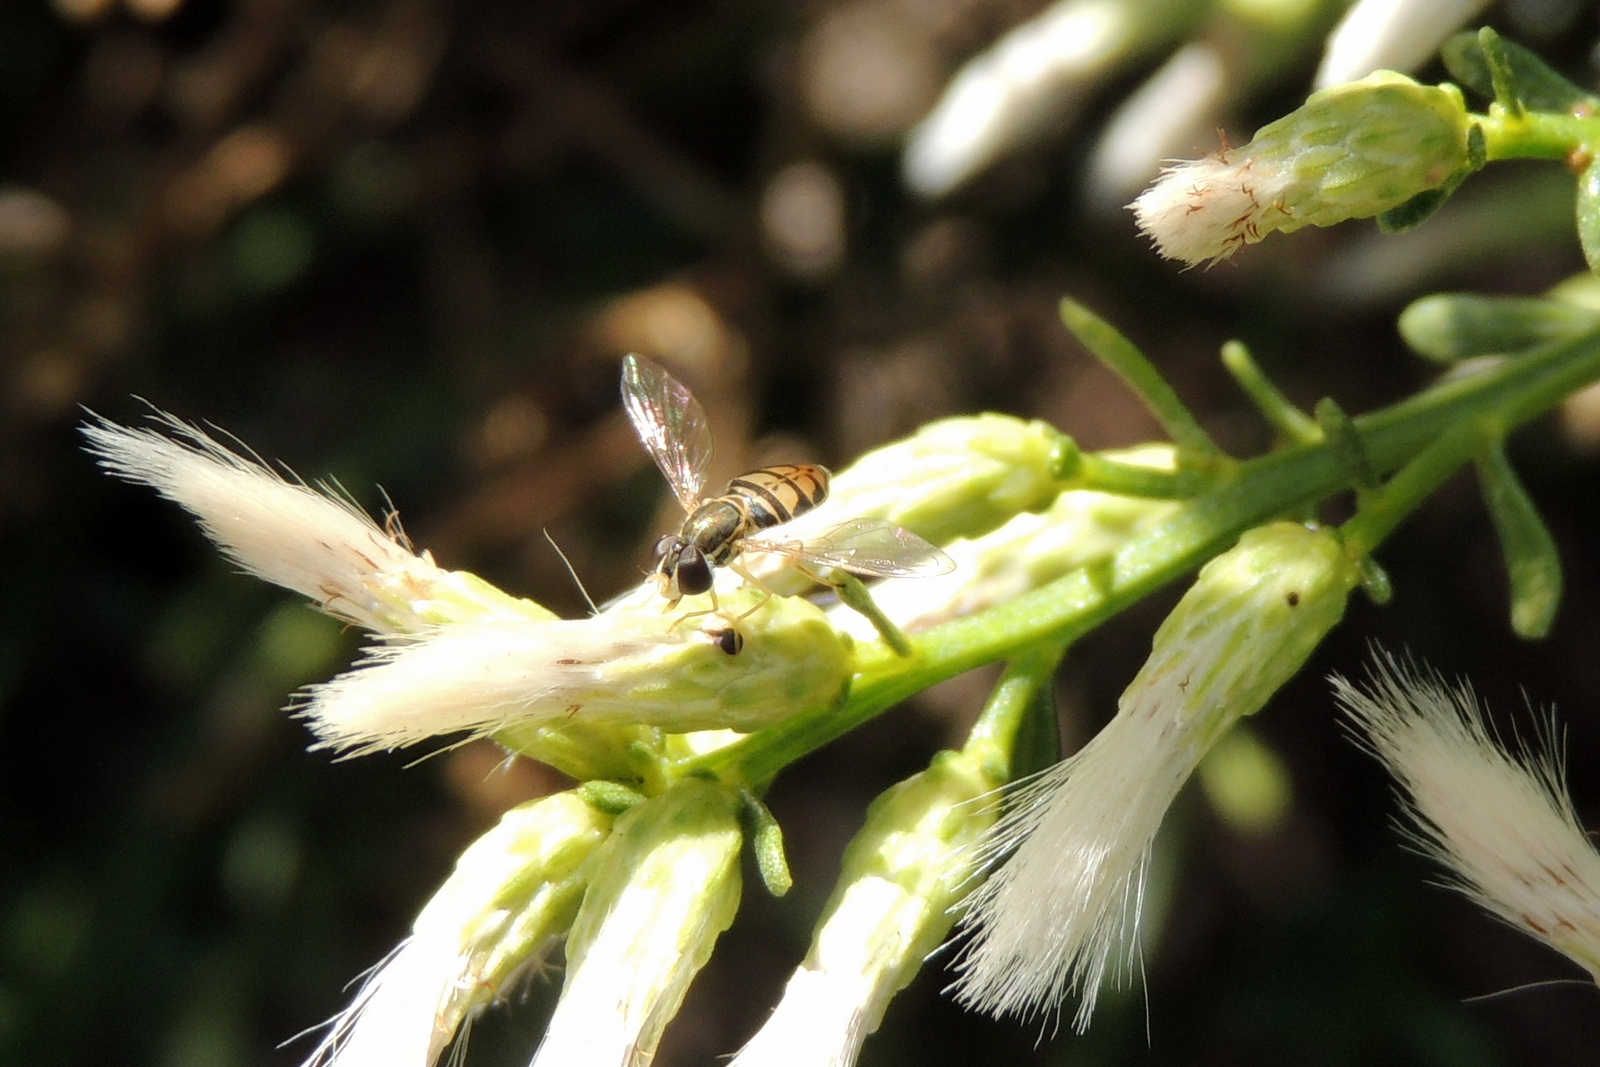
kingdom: Animalia
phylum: Arthropoda
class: Insecta
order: Diptera
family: Syrphidae
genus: Toxomerus
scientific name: Toxomerus marginatus
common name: Syrphid fly
